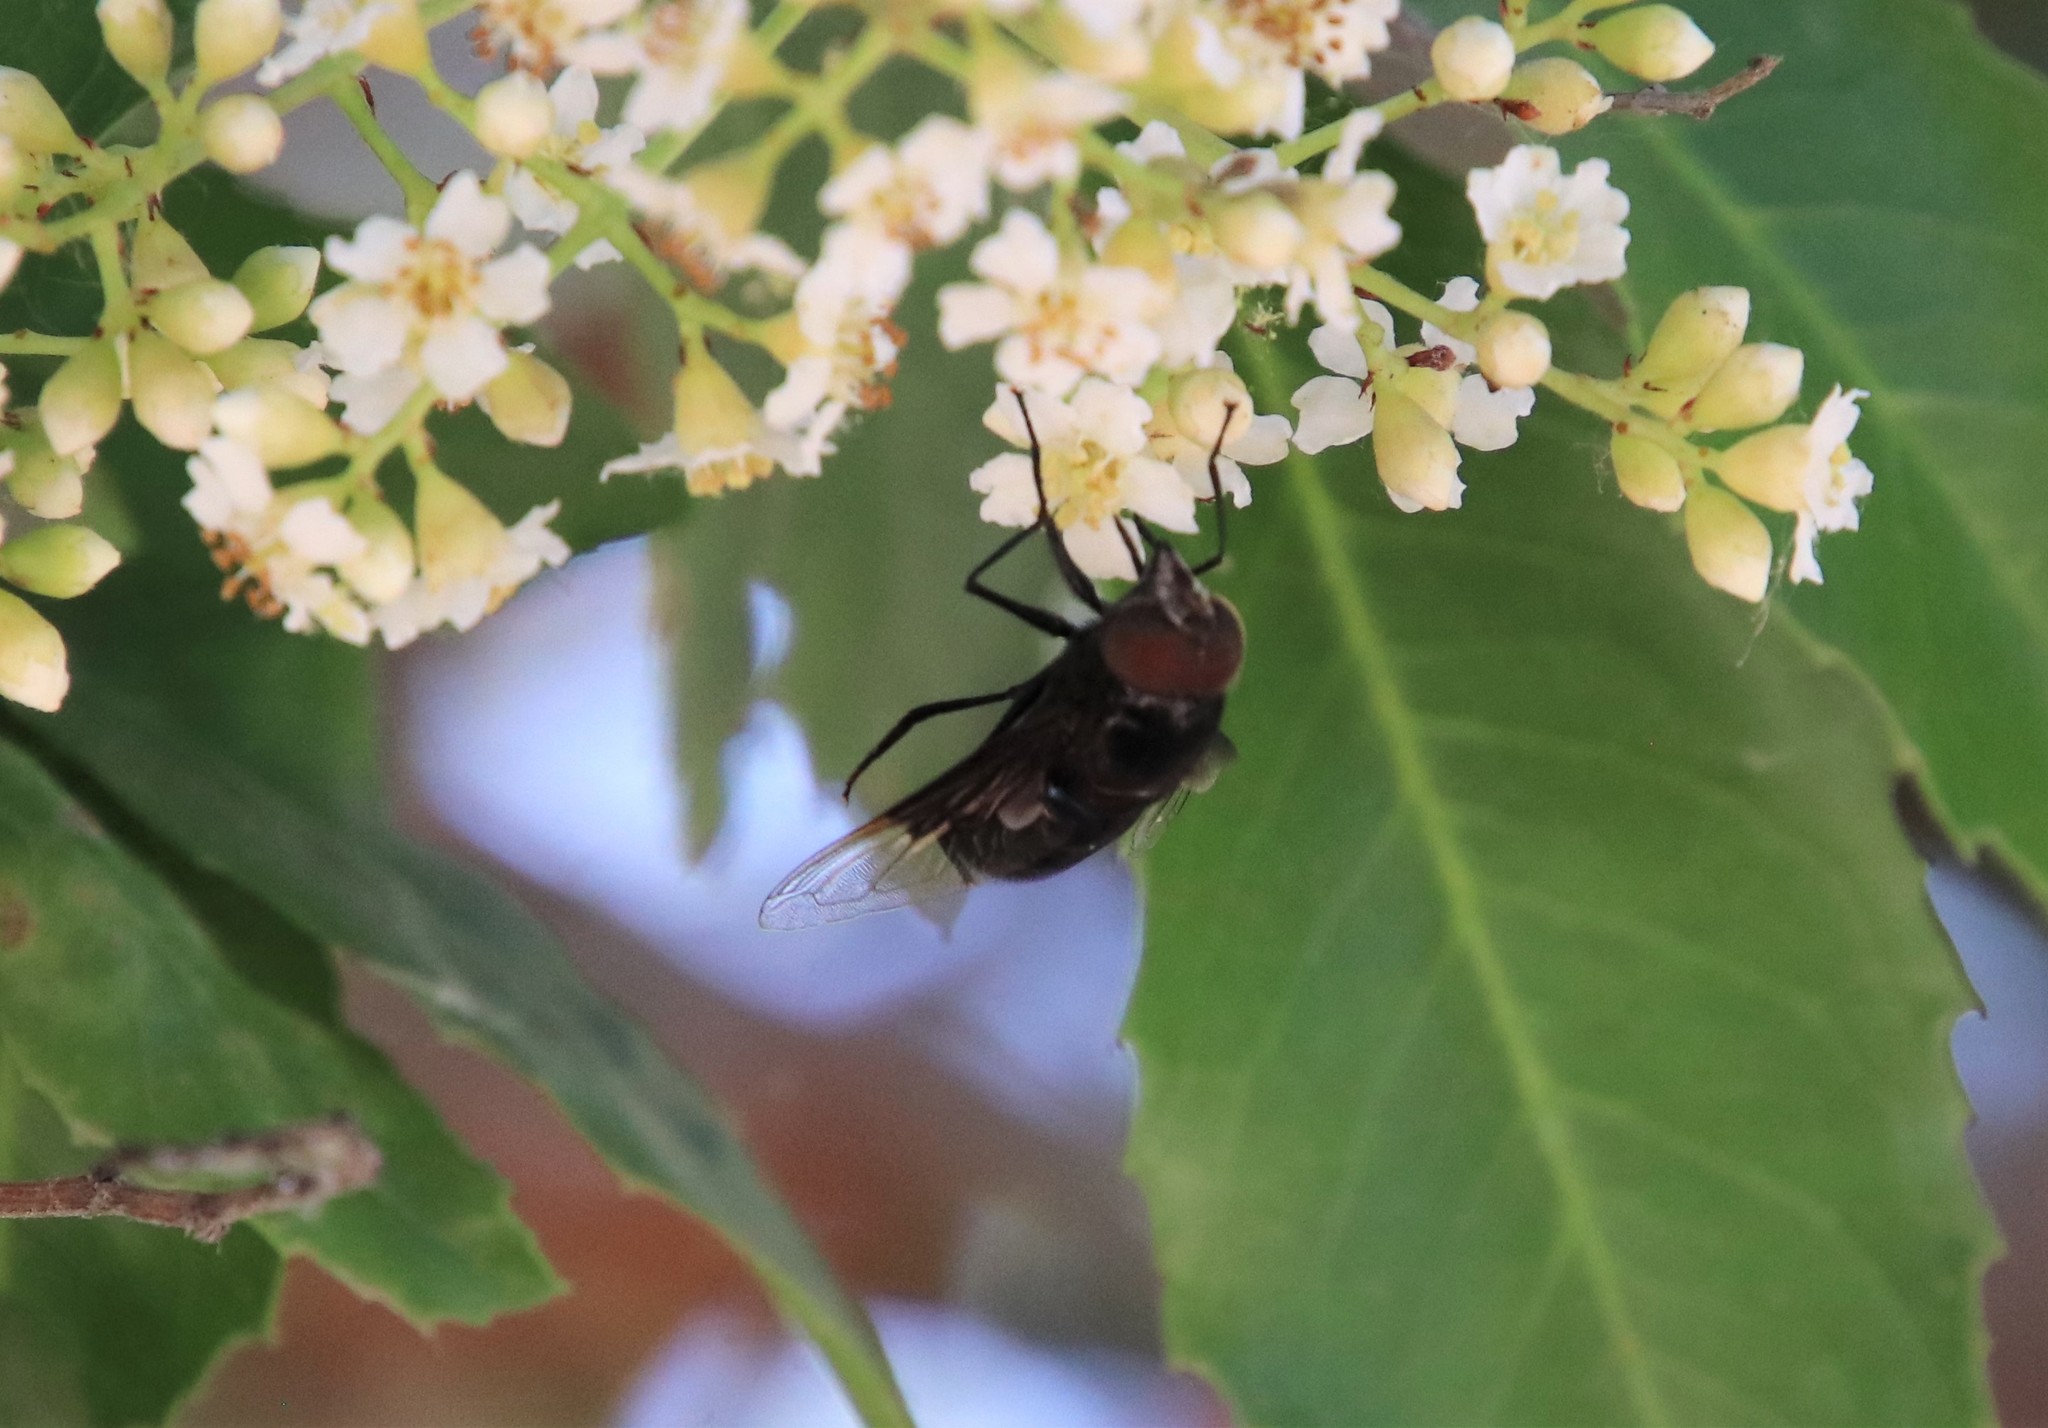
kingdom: Animalia
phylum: Arthropoda
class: Insecta
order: Diptera
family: Syrphidae
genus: Copestylum
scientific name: Copestylum mexicanum
